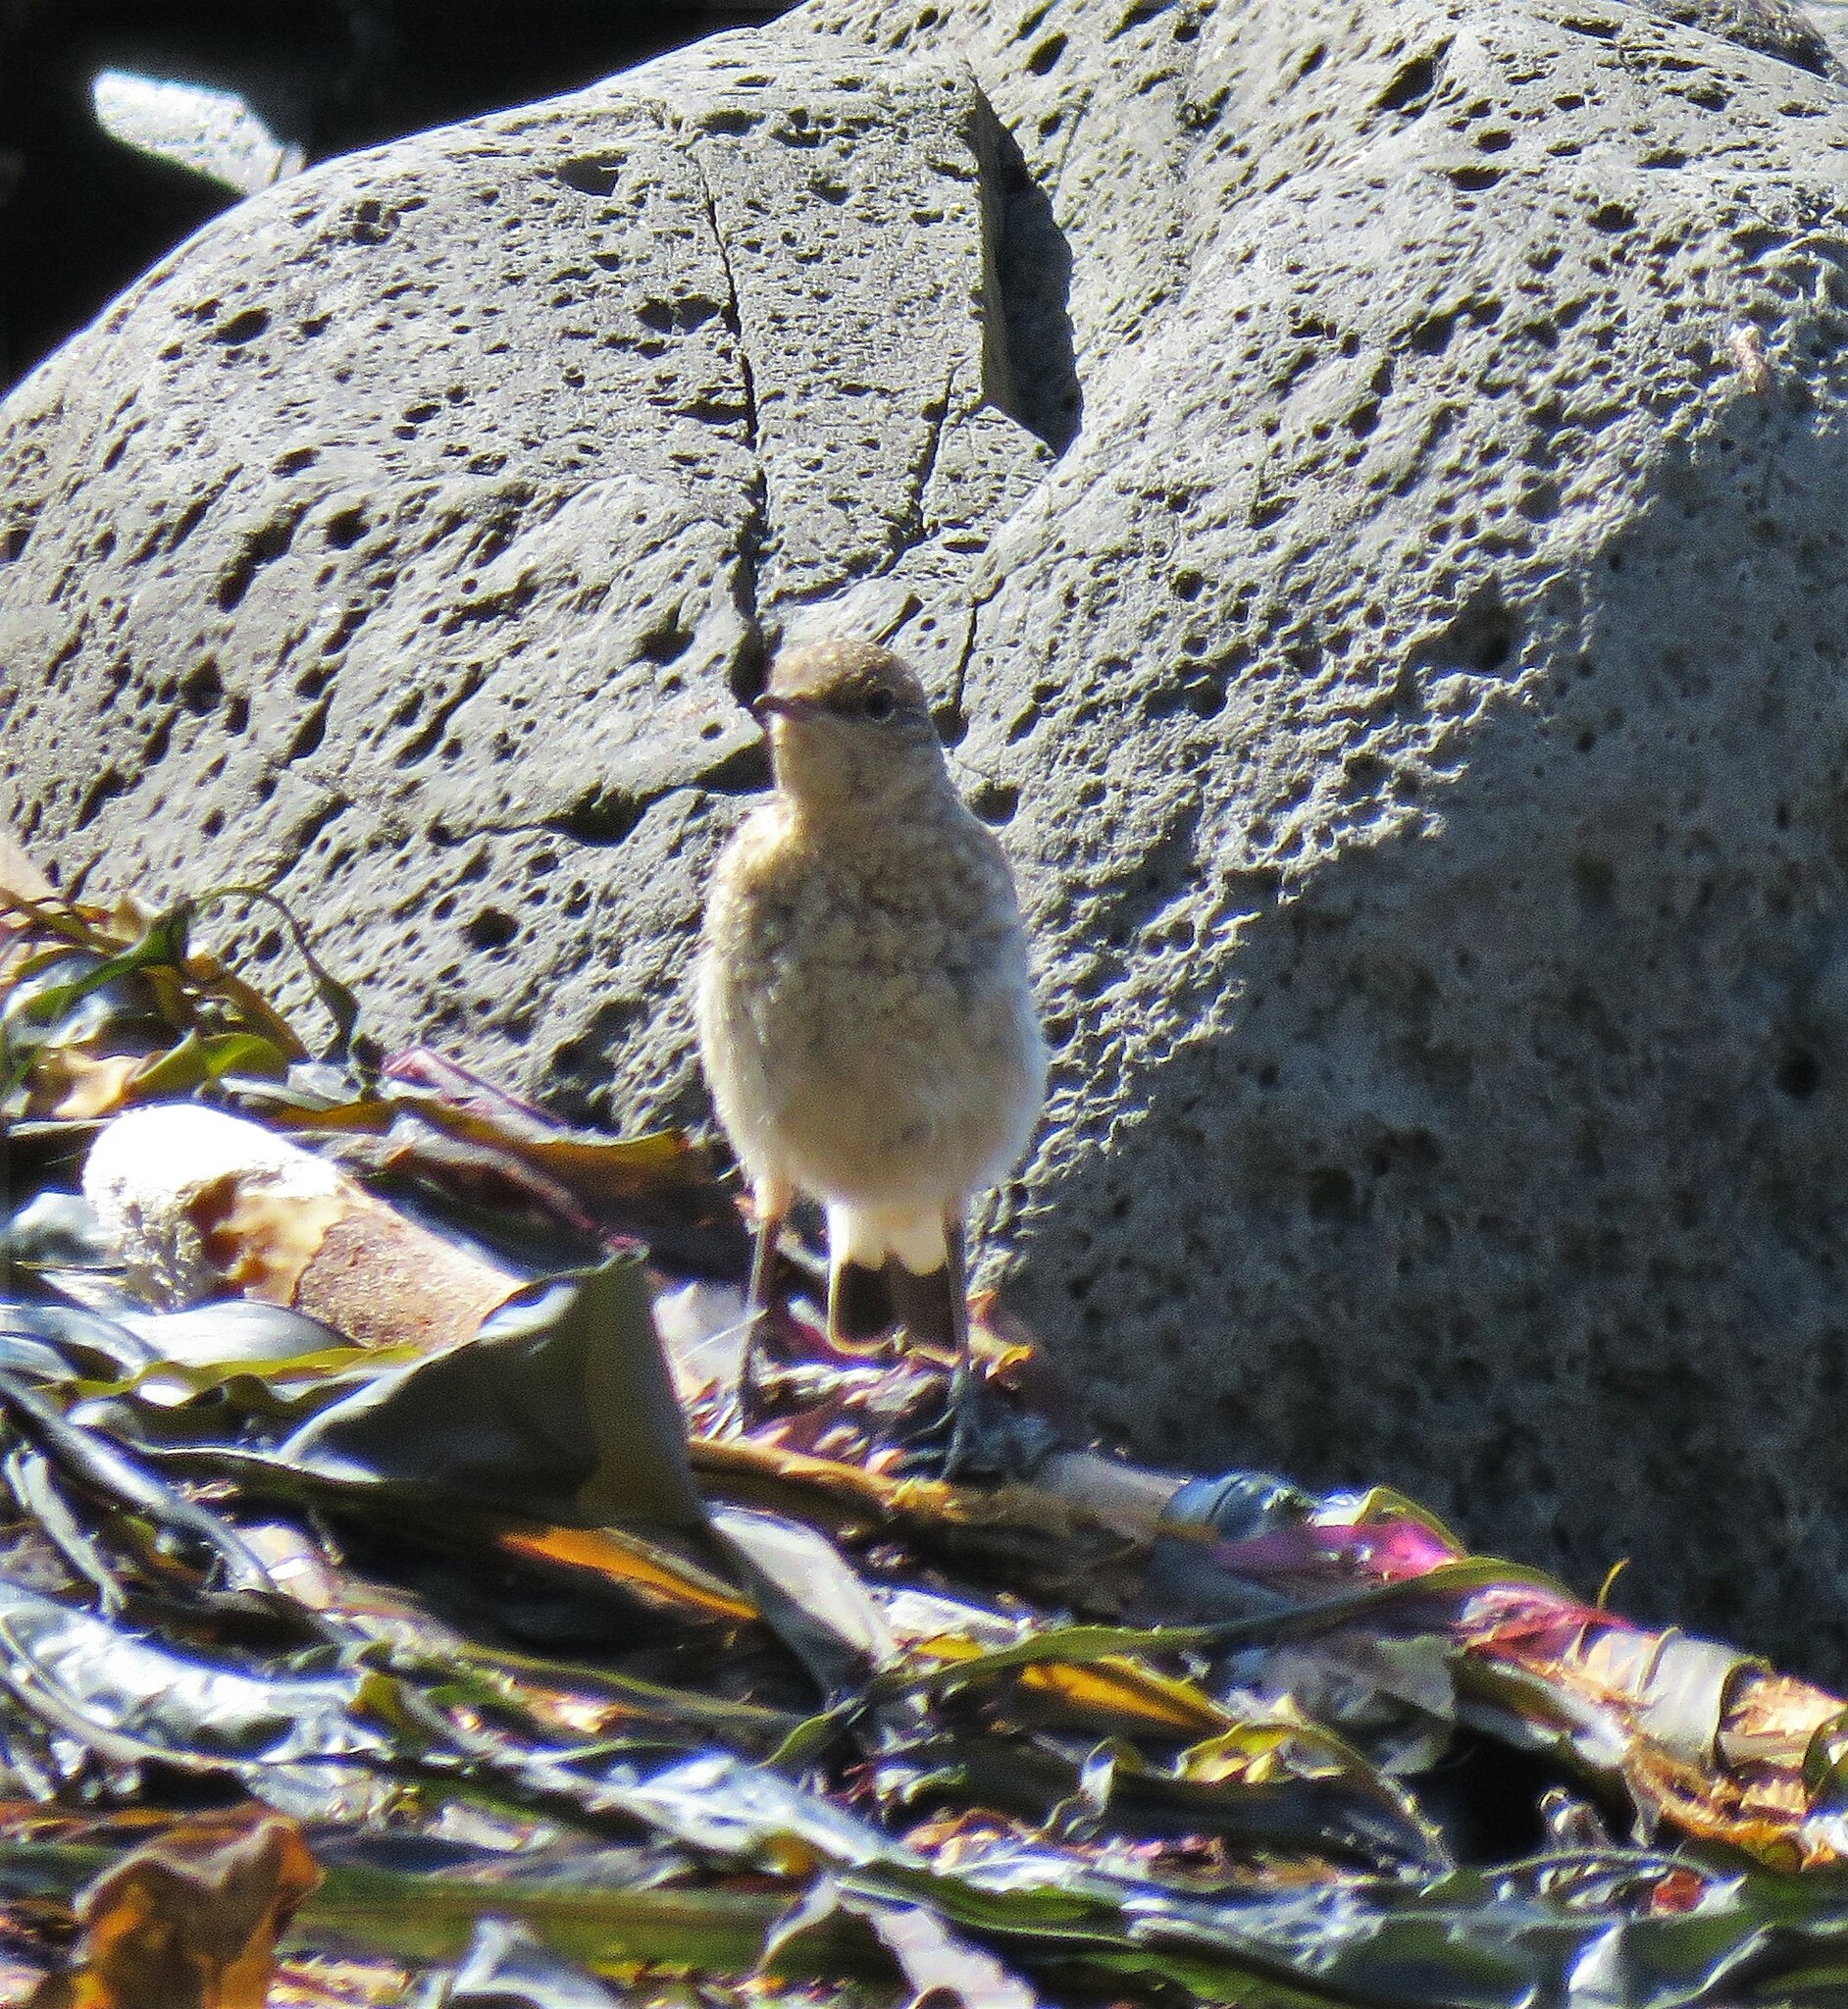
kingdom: Animalia
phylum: Chordata
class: Aves
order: Passeriformes
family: Muscicapidae
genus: Oenanthe
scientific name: Oenanthe oenanthe
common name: Northern wheatear
